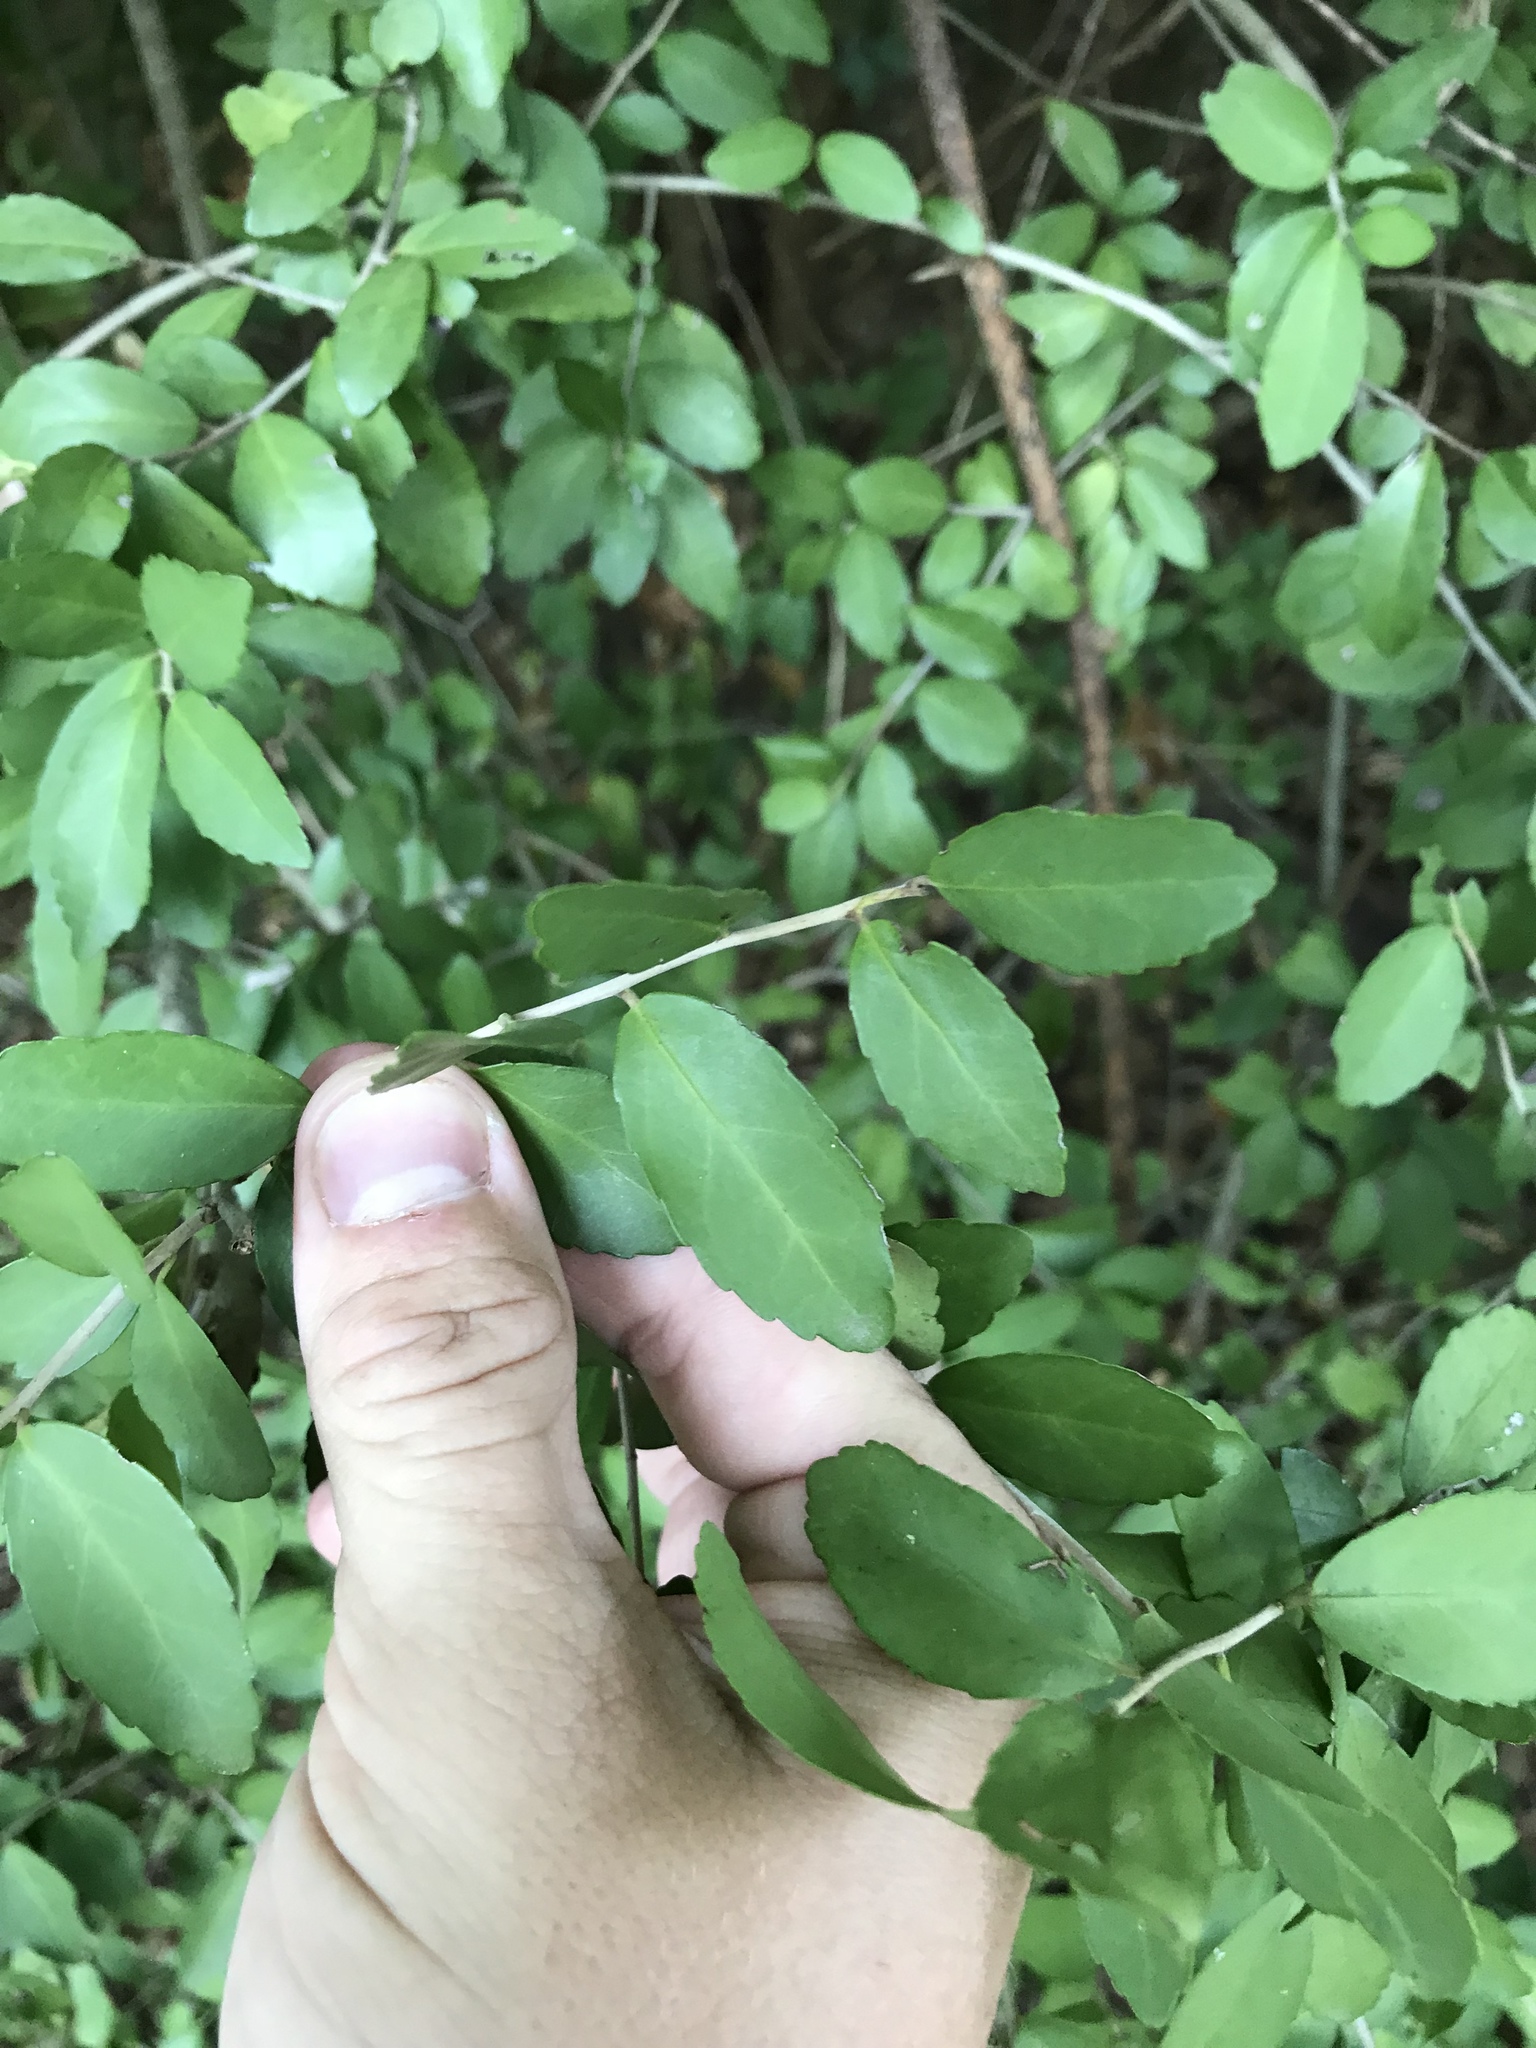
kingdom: Plantae
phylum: Tracheophyta
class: Magnoliopsida
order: Aquifoliales
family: Aquifoliaceae
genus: Ilex
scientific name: Ilex vomitoria
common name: Yaupon holly
